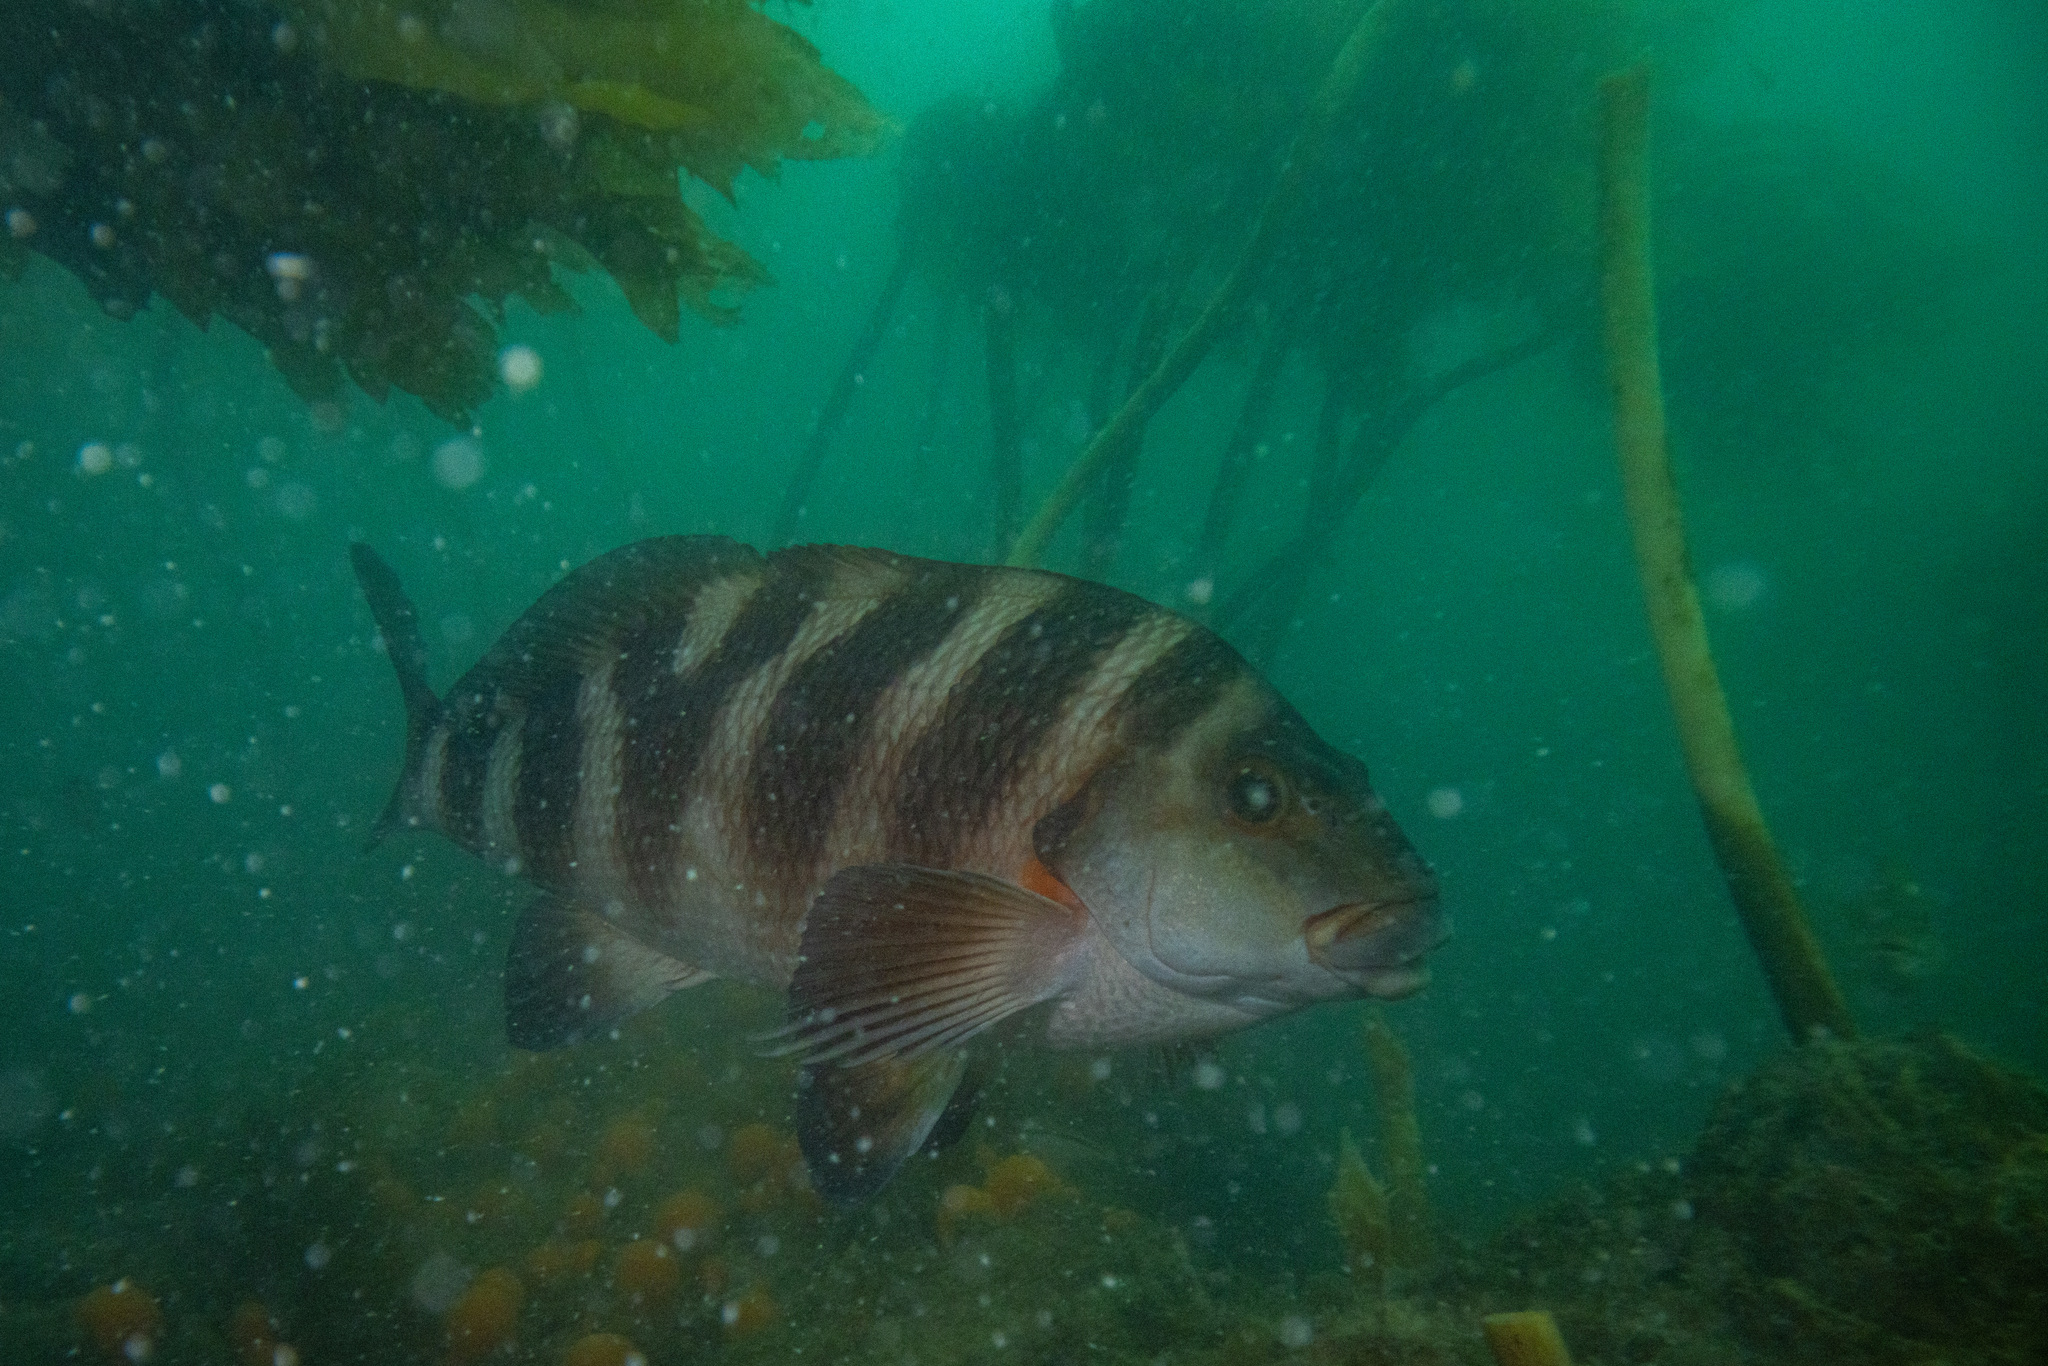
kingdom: Animalia
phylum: Chordata
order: Perciformes
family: Cheilodactylidae
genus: Cheilodactylus
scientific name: Cheilodactylus spectabilis
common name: Red moki
